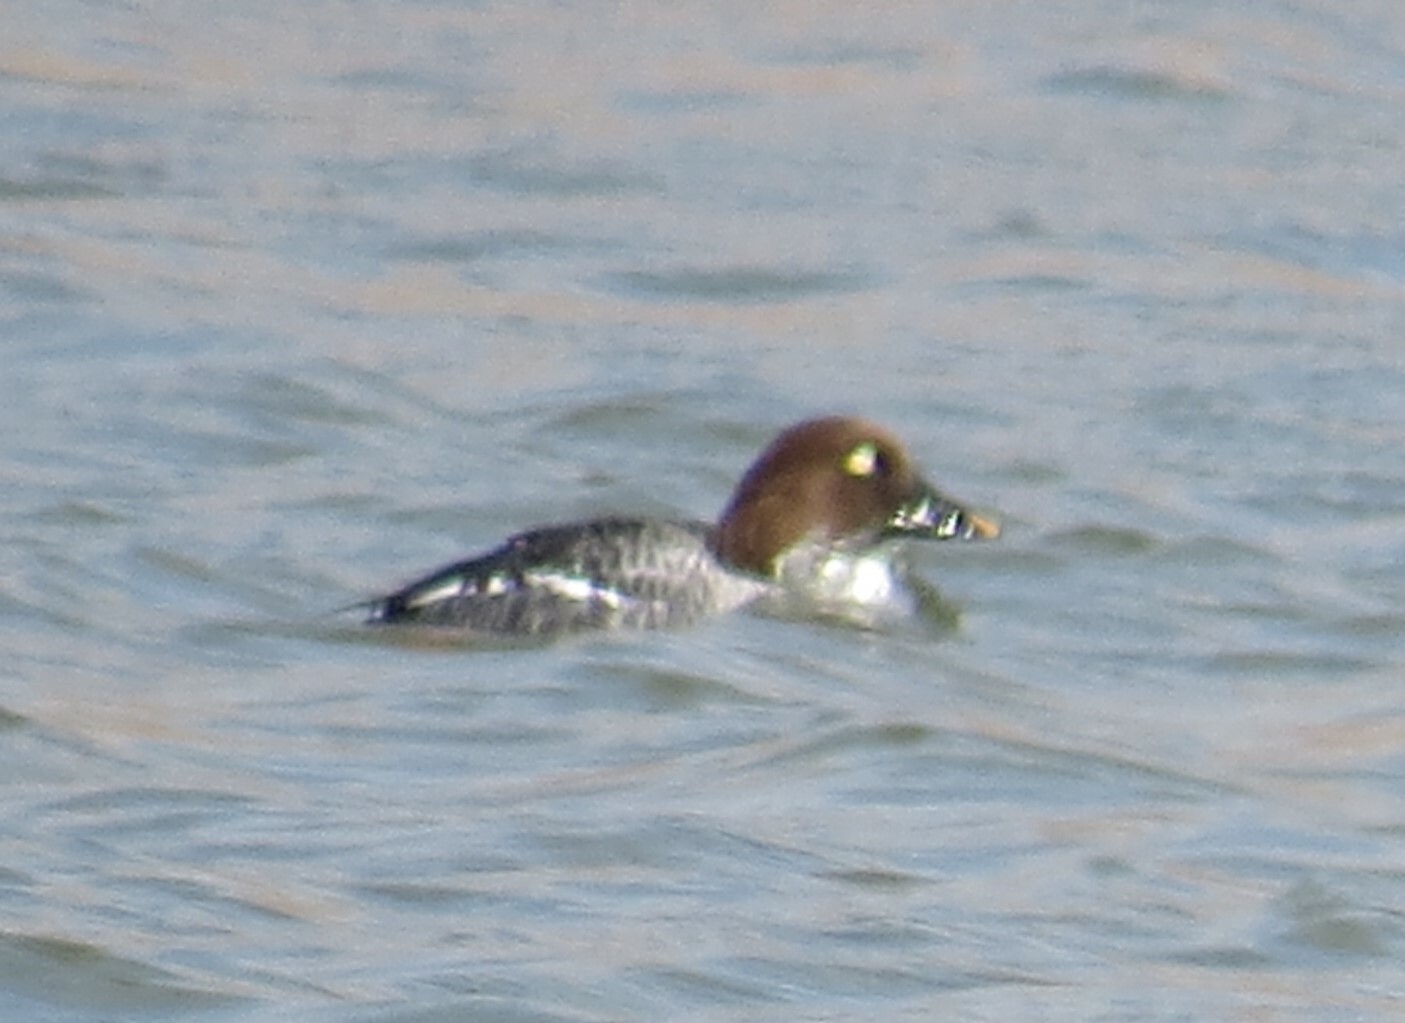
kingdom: Animalia
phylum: Chordata
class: Aves
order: Anseriformes
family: Anatidae
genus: Bucephala
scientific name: Bucephala clangula
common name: Common goldeneye
